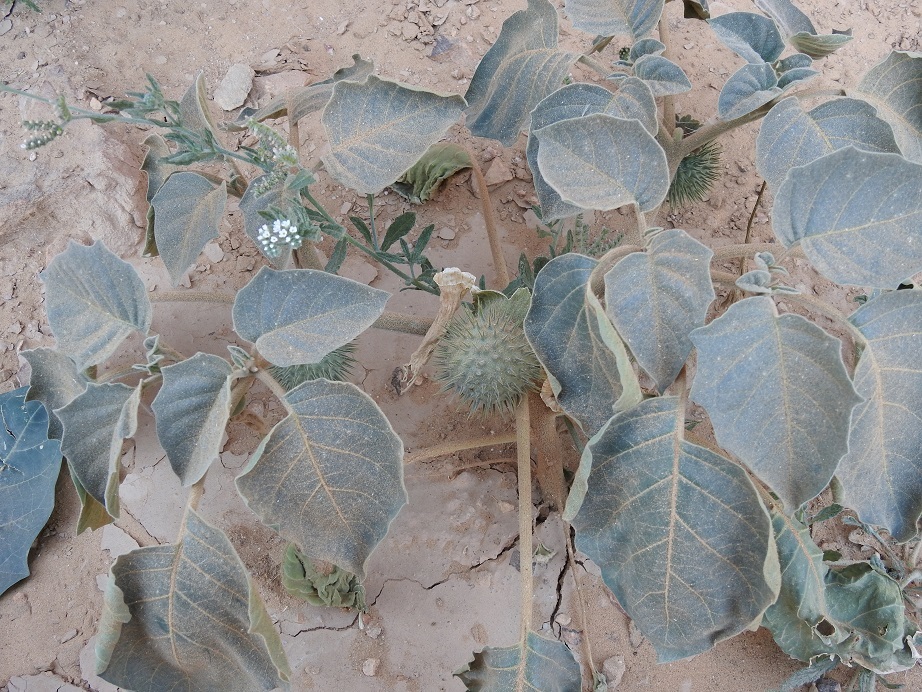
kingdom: Plantae
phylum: Tracheophyta
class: Magnoliopsida
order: Solanales
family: Solanaceae
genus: Datura
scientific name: Datura innoxia
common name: Downy thorn-apple
